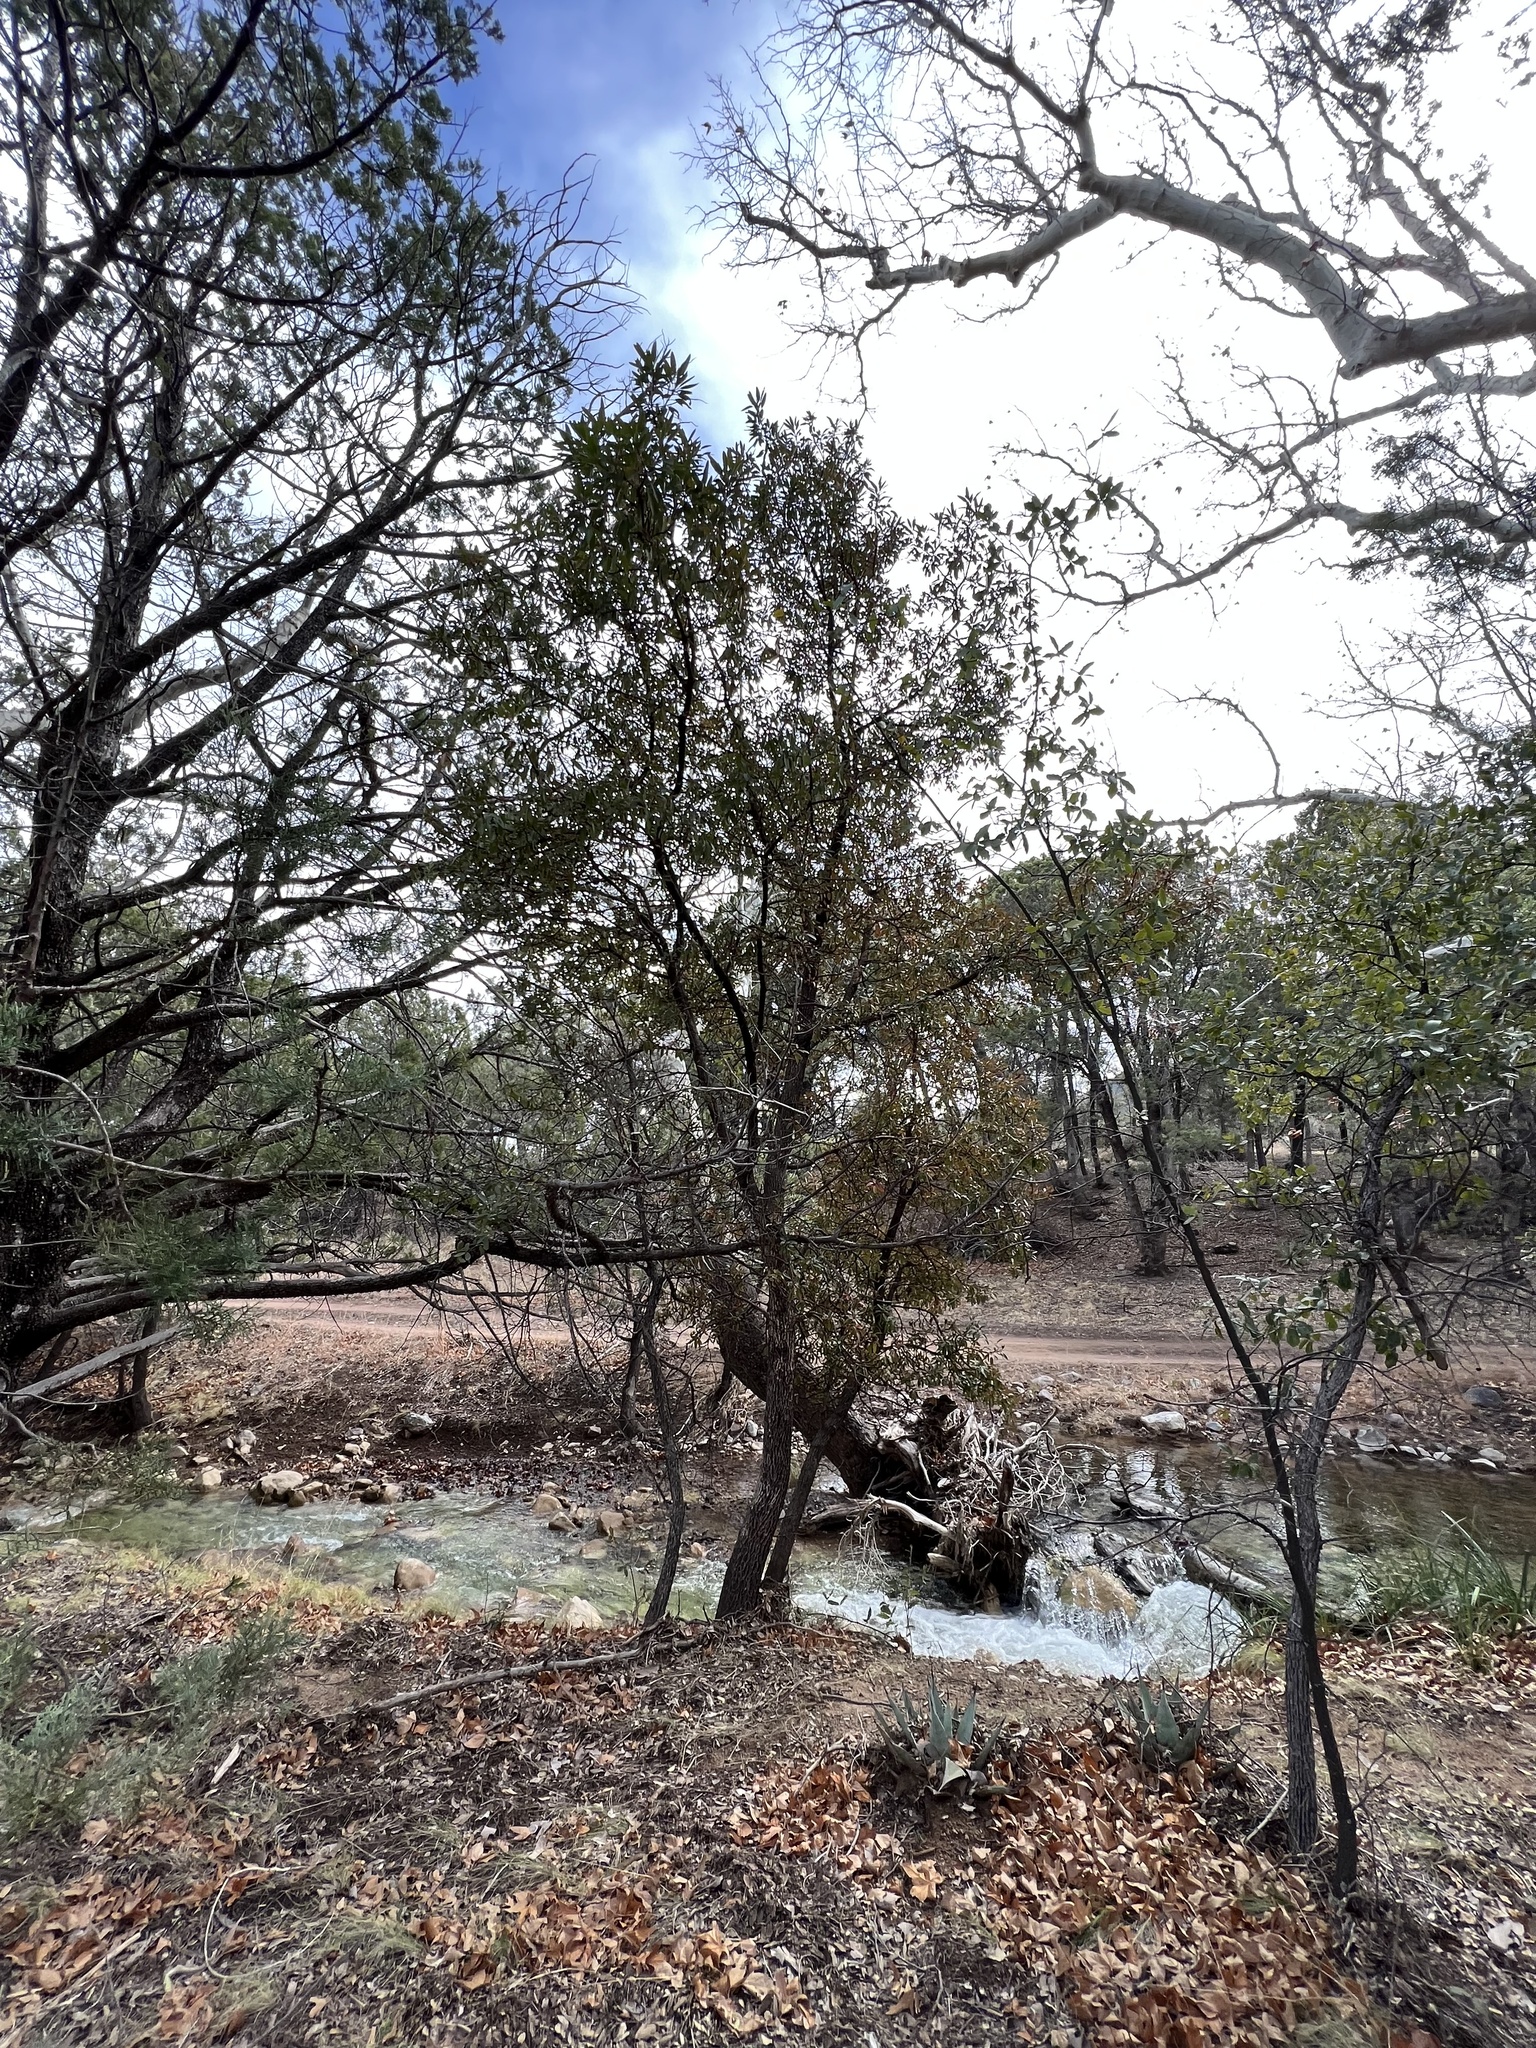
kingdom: Plantae
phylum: Tracheophyta
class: Magnoliopsida
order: Ericales
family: Ericaceae
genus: Arbutus
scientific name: Arbutus arizonica
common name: Arizona madrone
